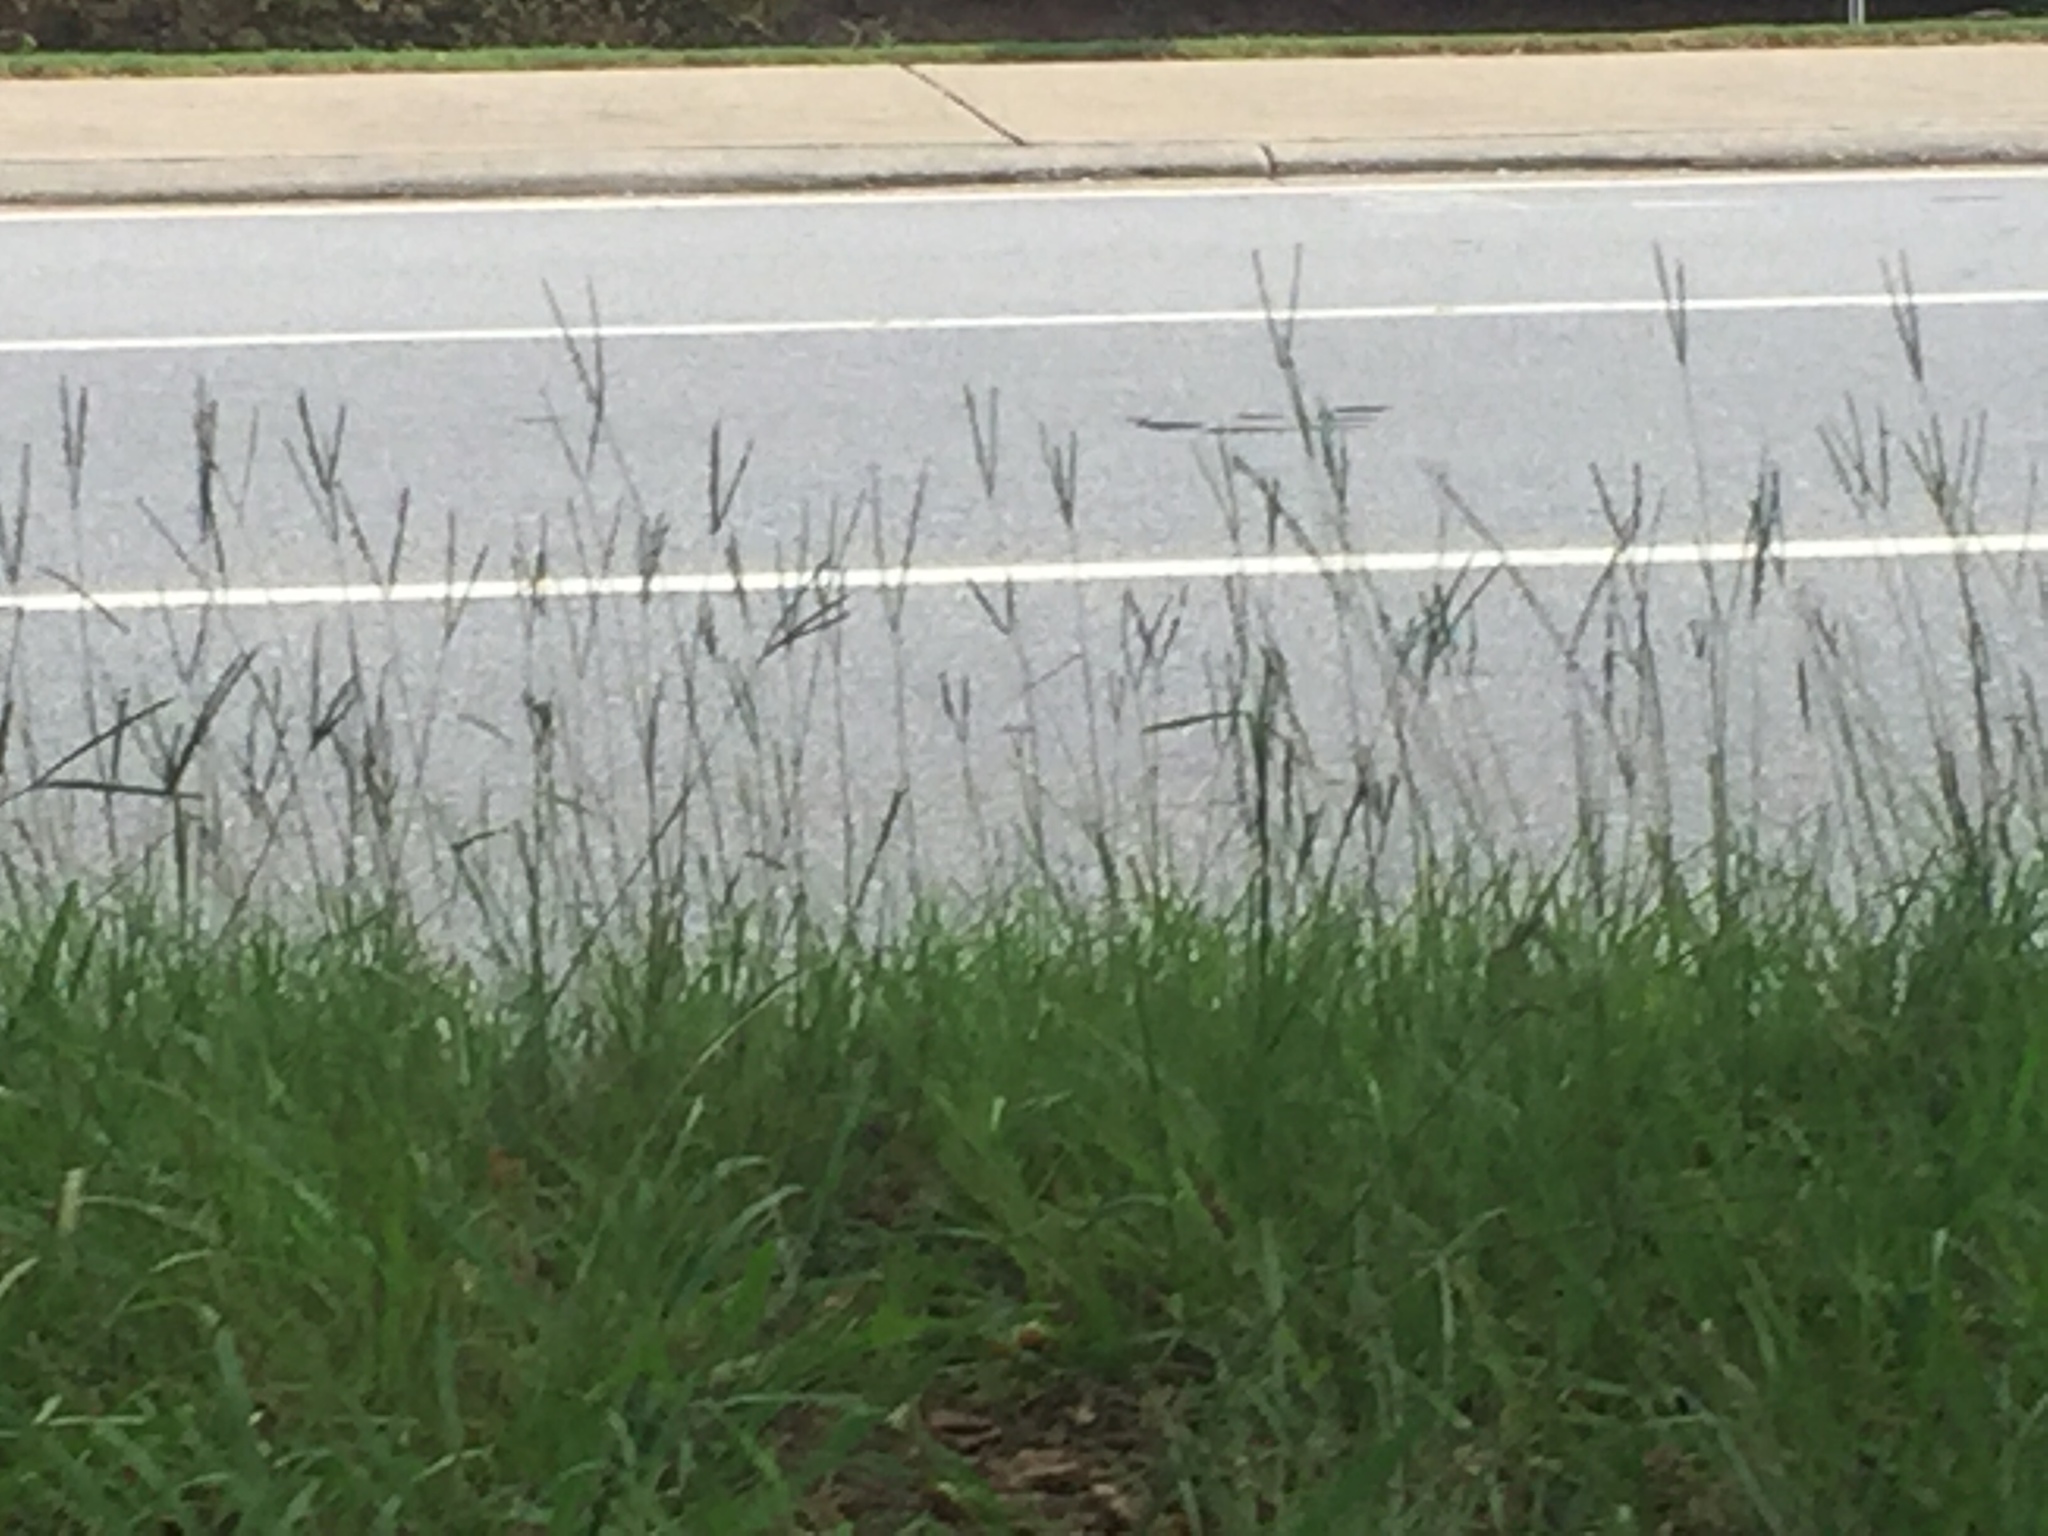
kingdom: Plantae
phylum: Tracheophyta
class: Liliopsida
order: Poales
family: Poaceae
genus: Paspalum
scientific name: Paspalum notatum
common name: Bahiagrass
